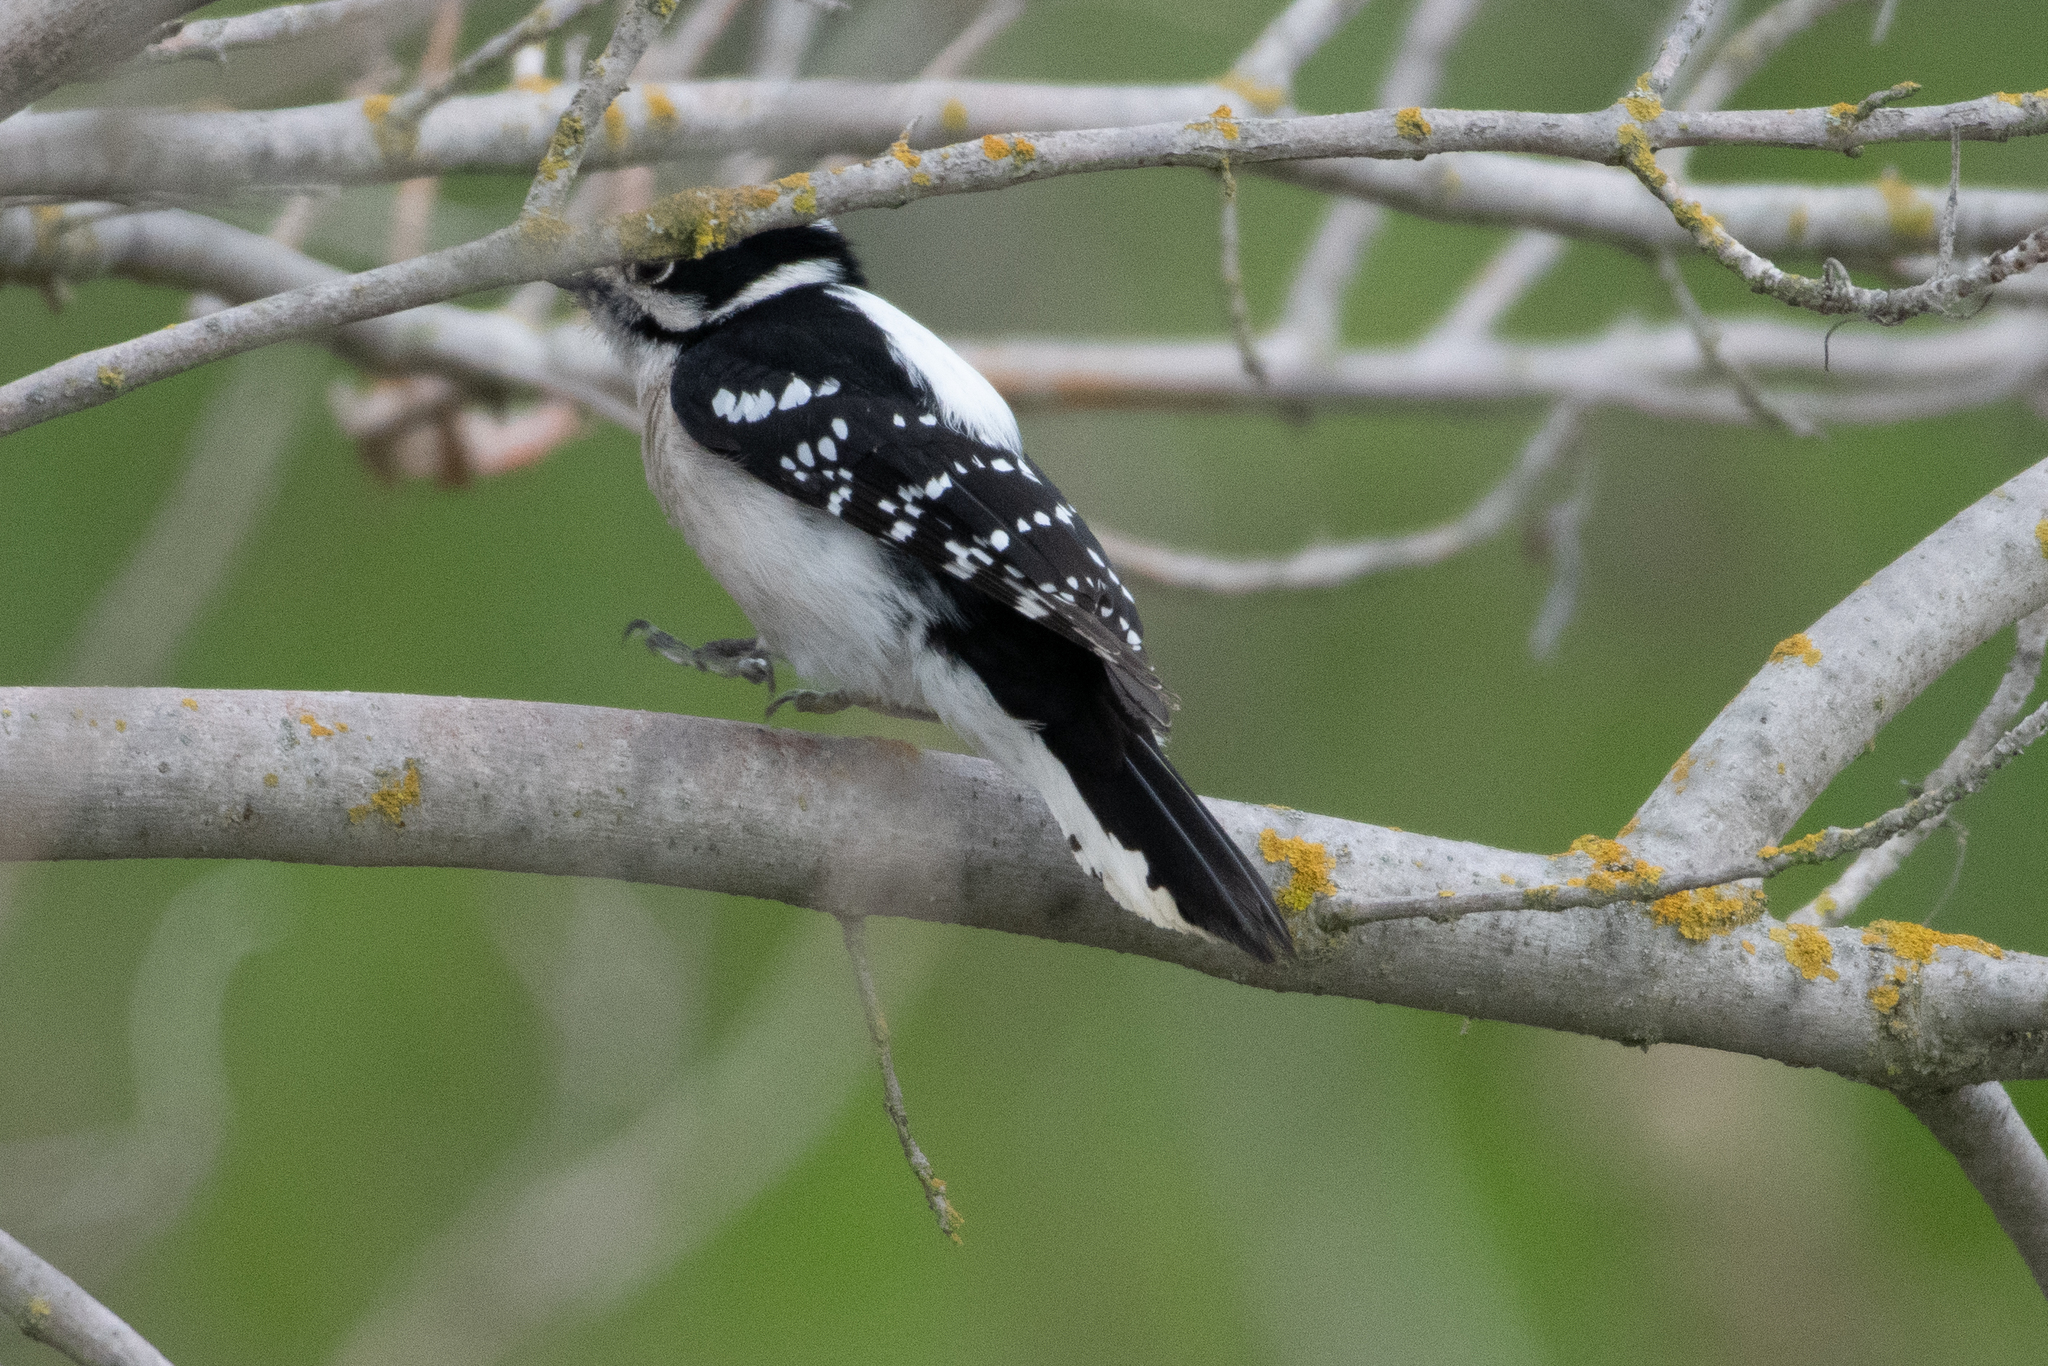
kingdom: Animalia
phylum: Chordata
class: Aves
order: Piciformes
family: Picidae
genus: Dryobates
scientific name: Dryobates pubescens
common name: Downy woodpecker
